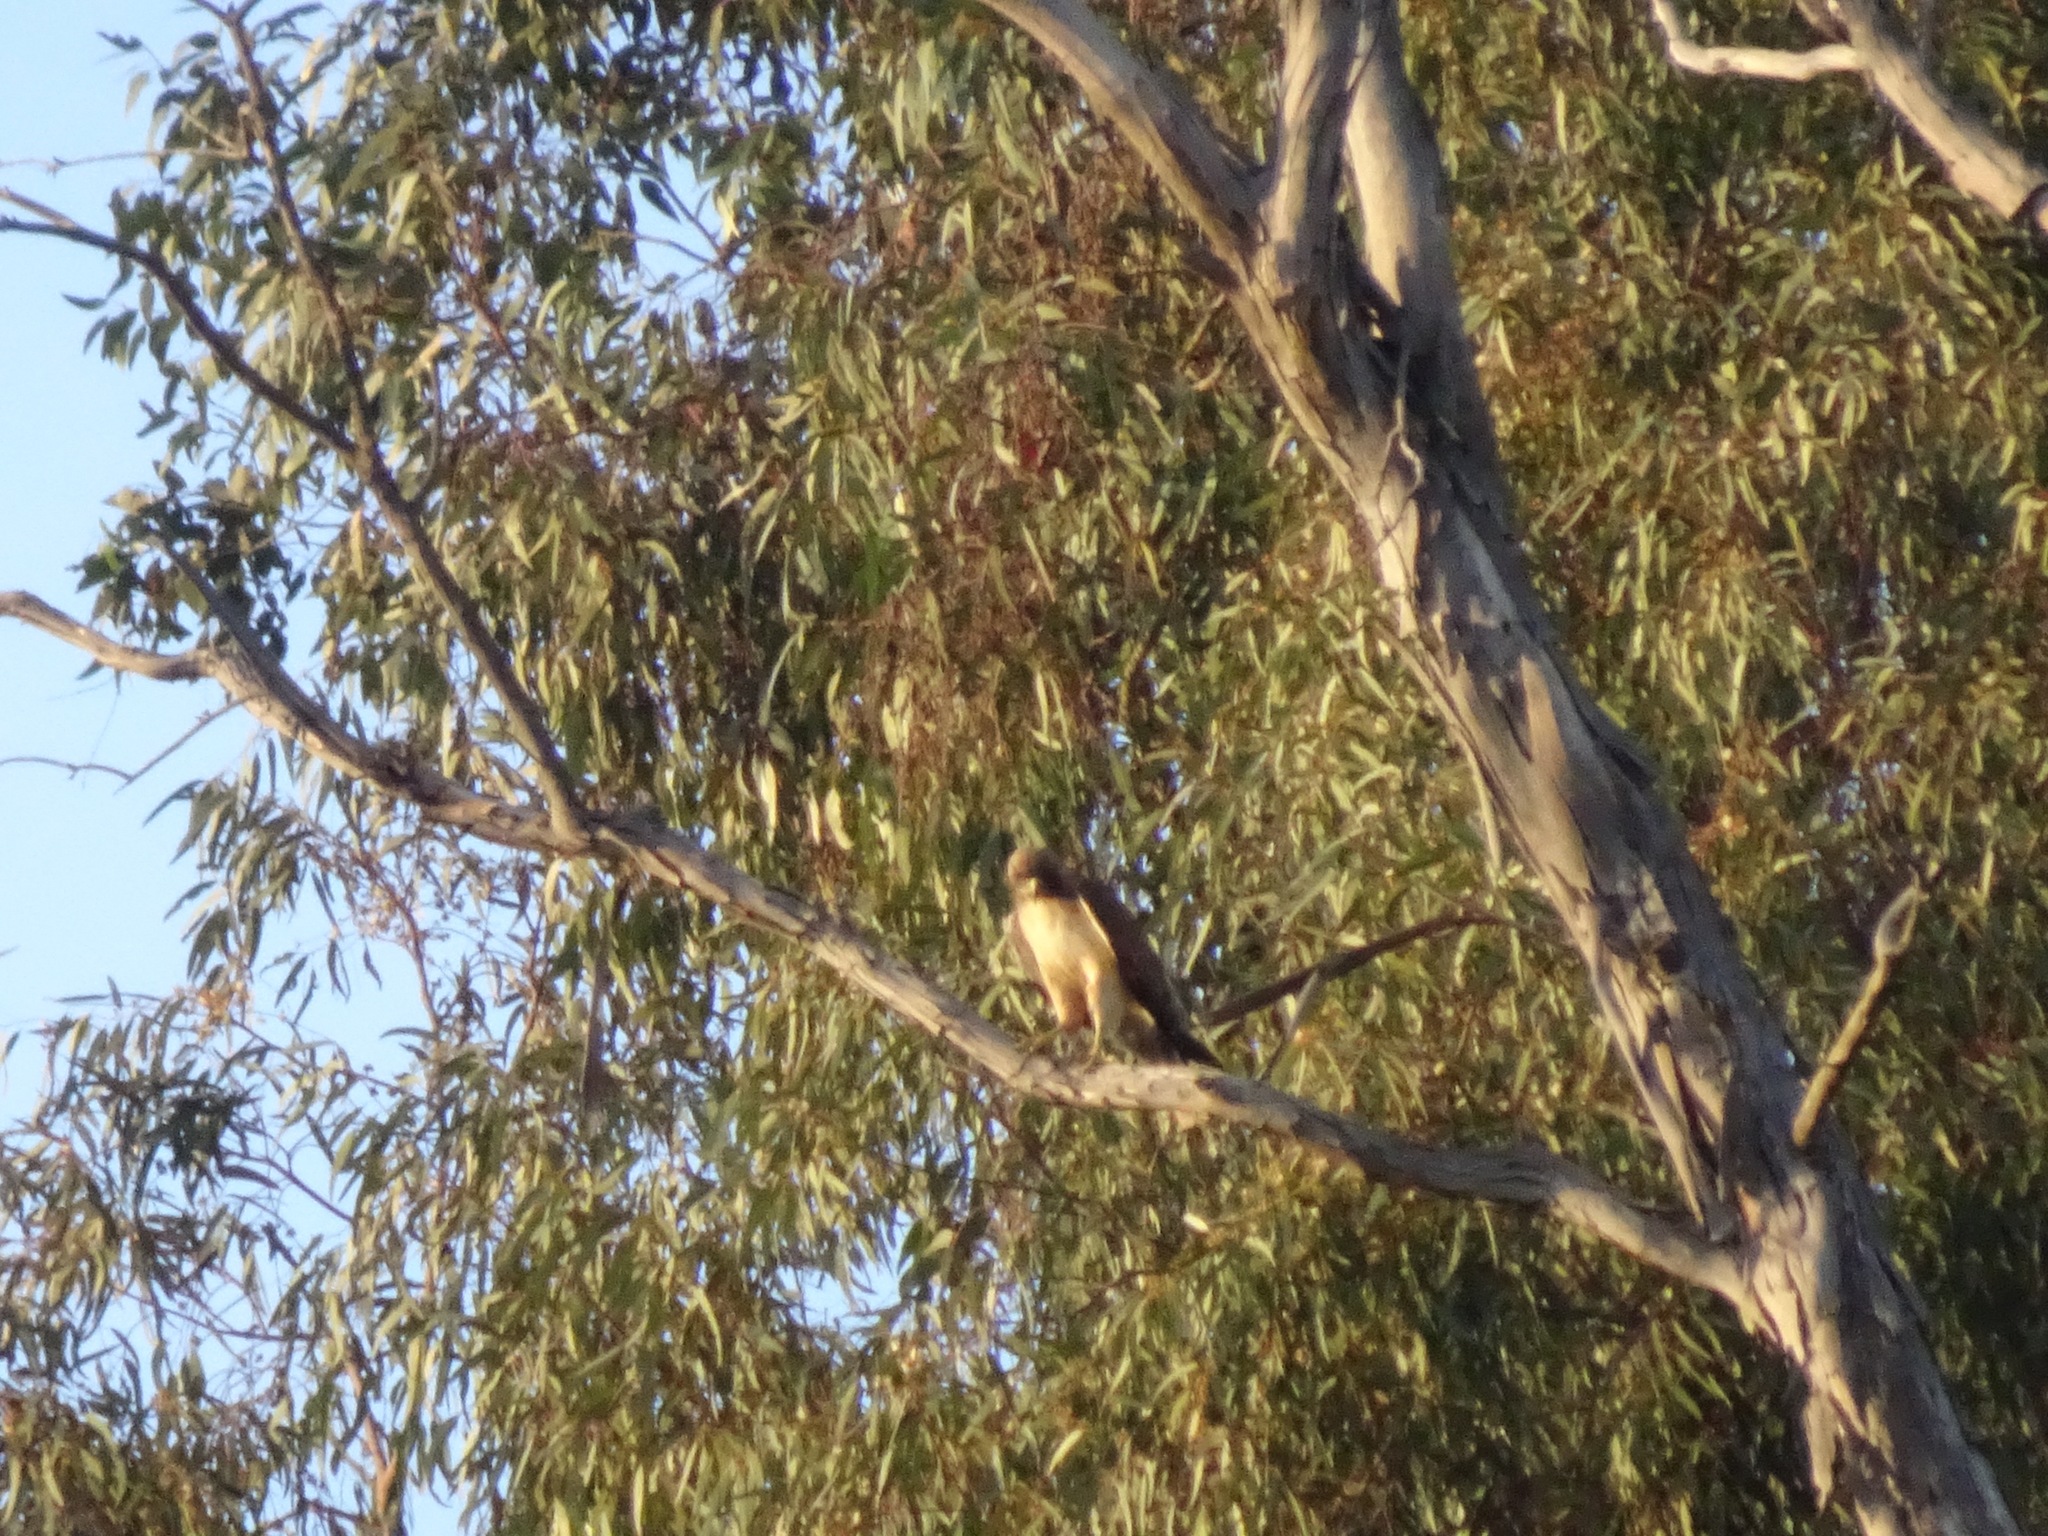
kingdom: Animalia
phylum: Chordata
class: Aves
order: Accipitriformes
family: Accipitridae
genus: Buteo
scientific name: Buteo jamaicensis
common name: Red-tailed hawk
